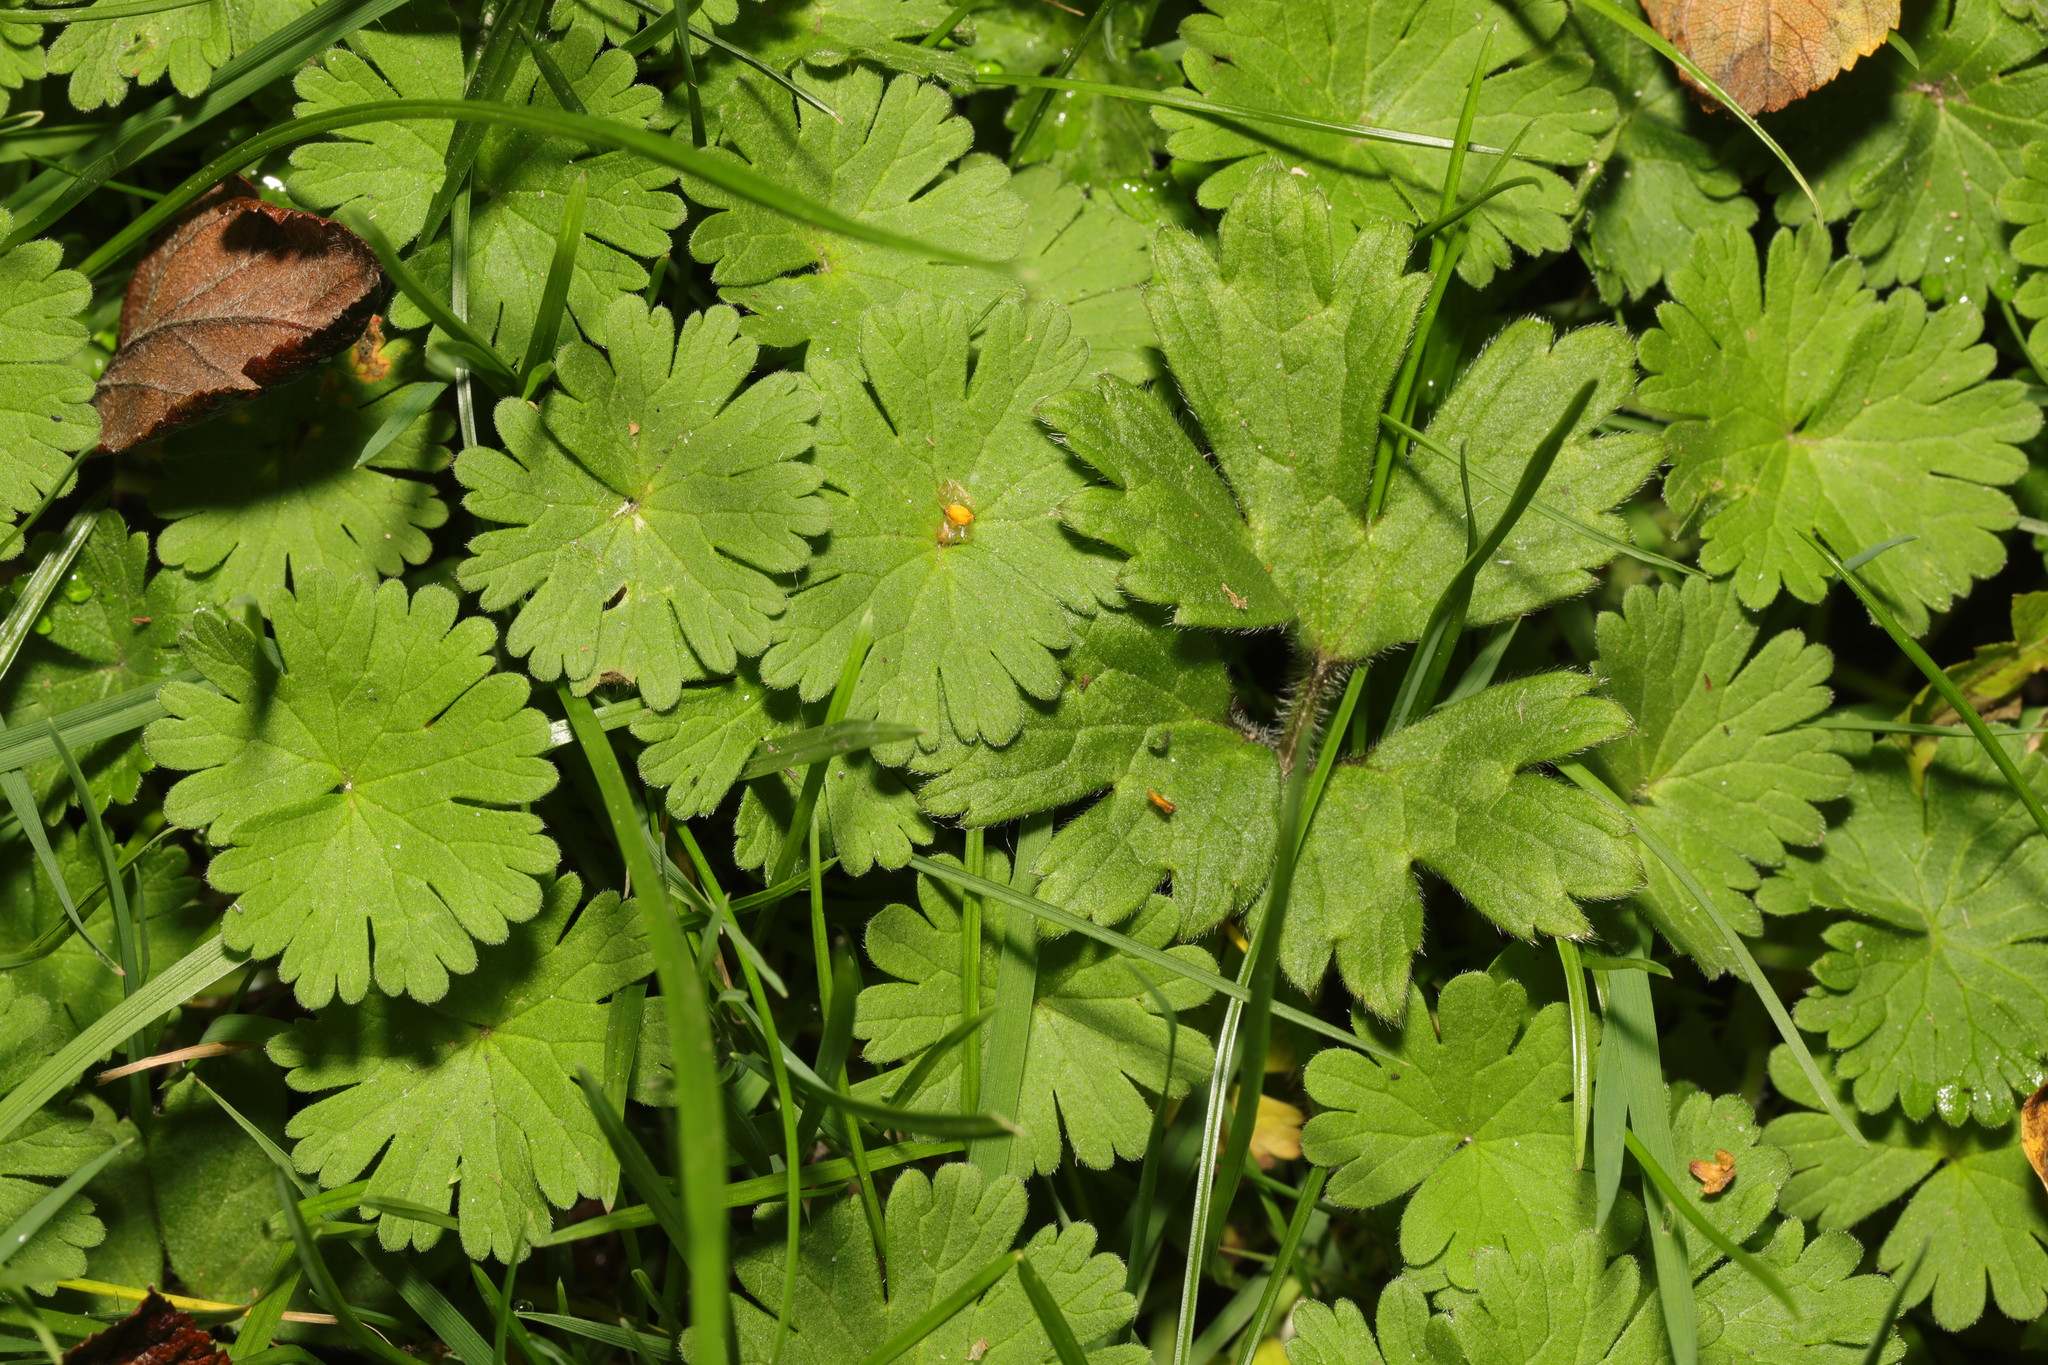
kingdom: Plantae
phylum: Tracheophyta
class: Magnoliopsida
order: Geraniales
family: Geraniaceae
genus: Geranium
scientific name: Geranium molle
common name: Dove's-foot crane's-bill
